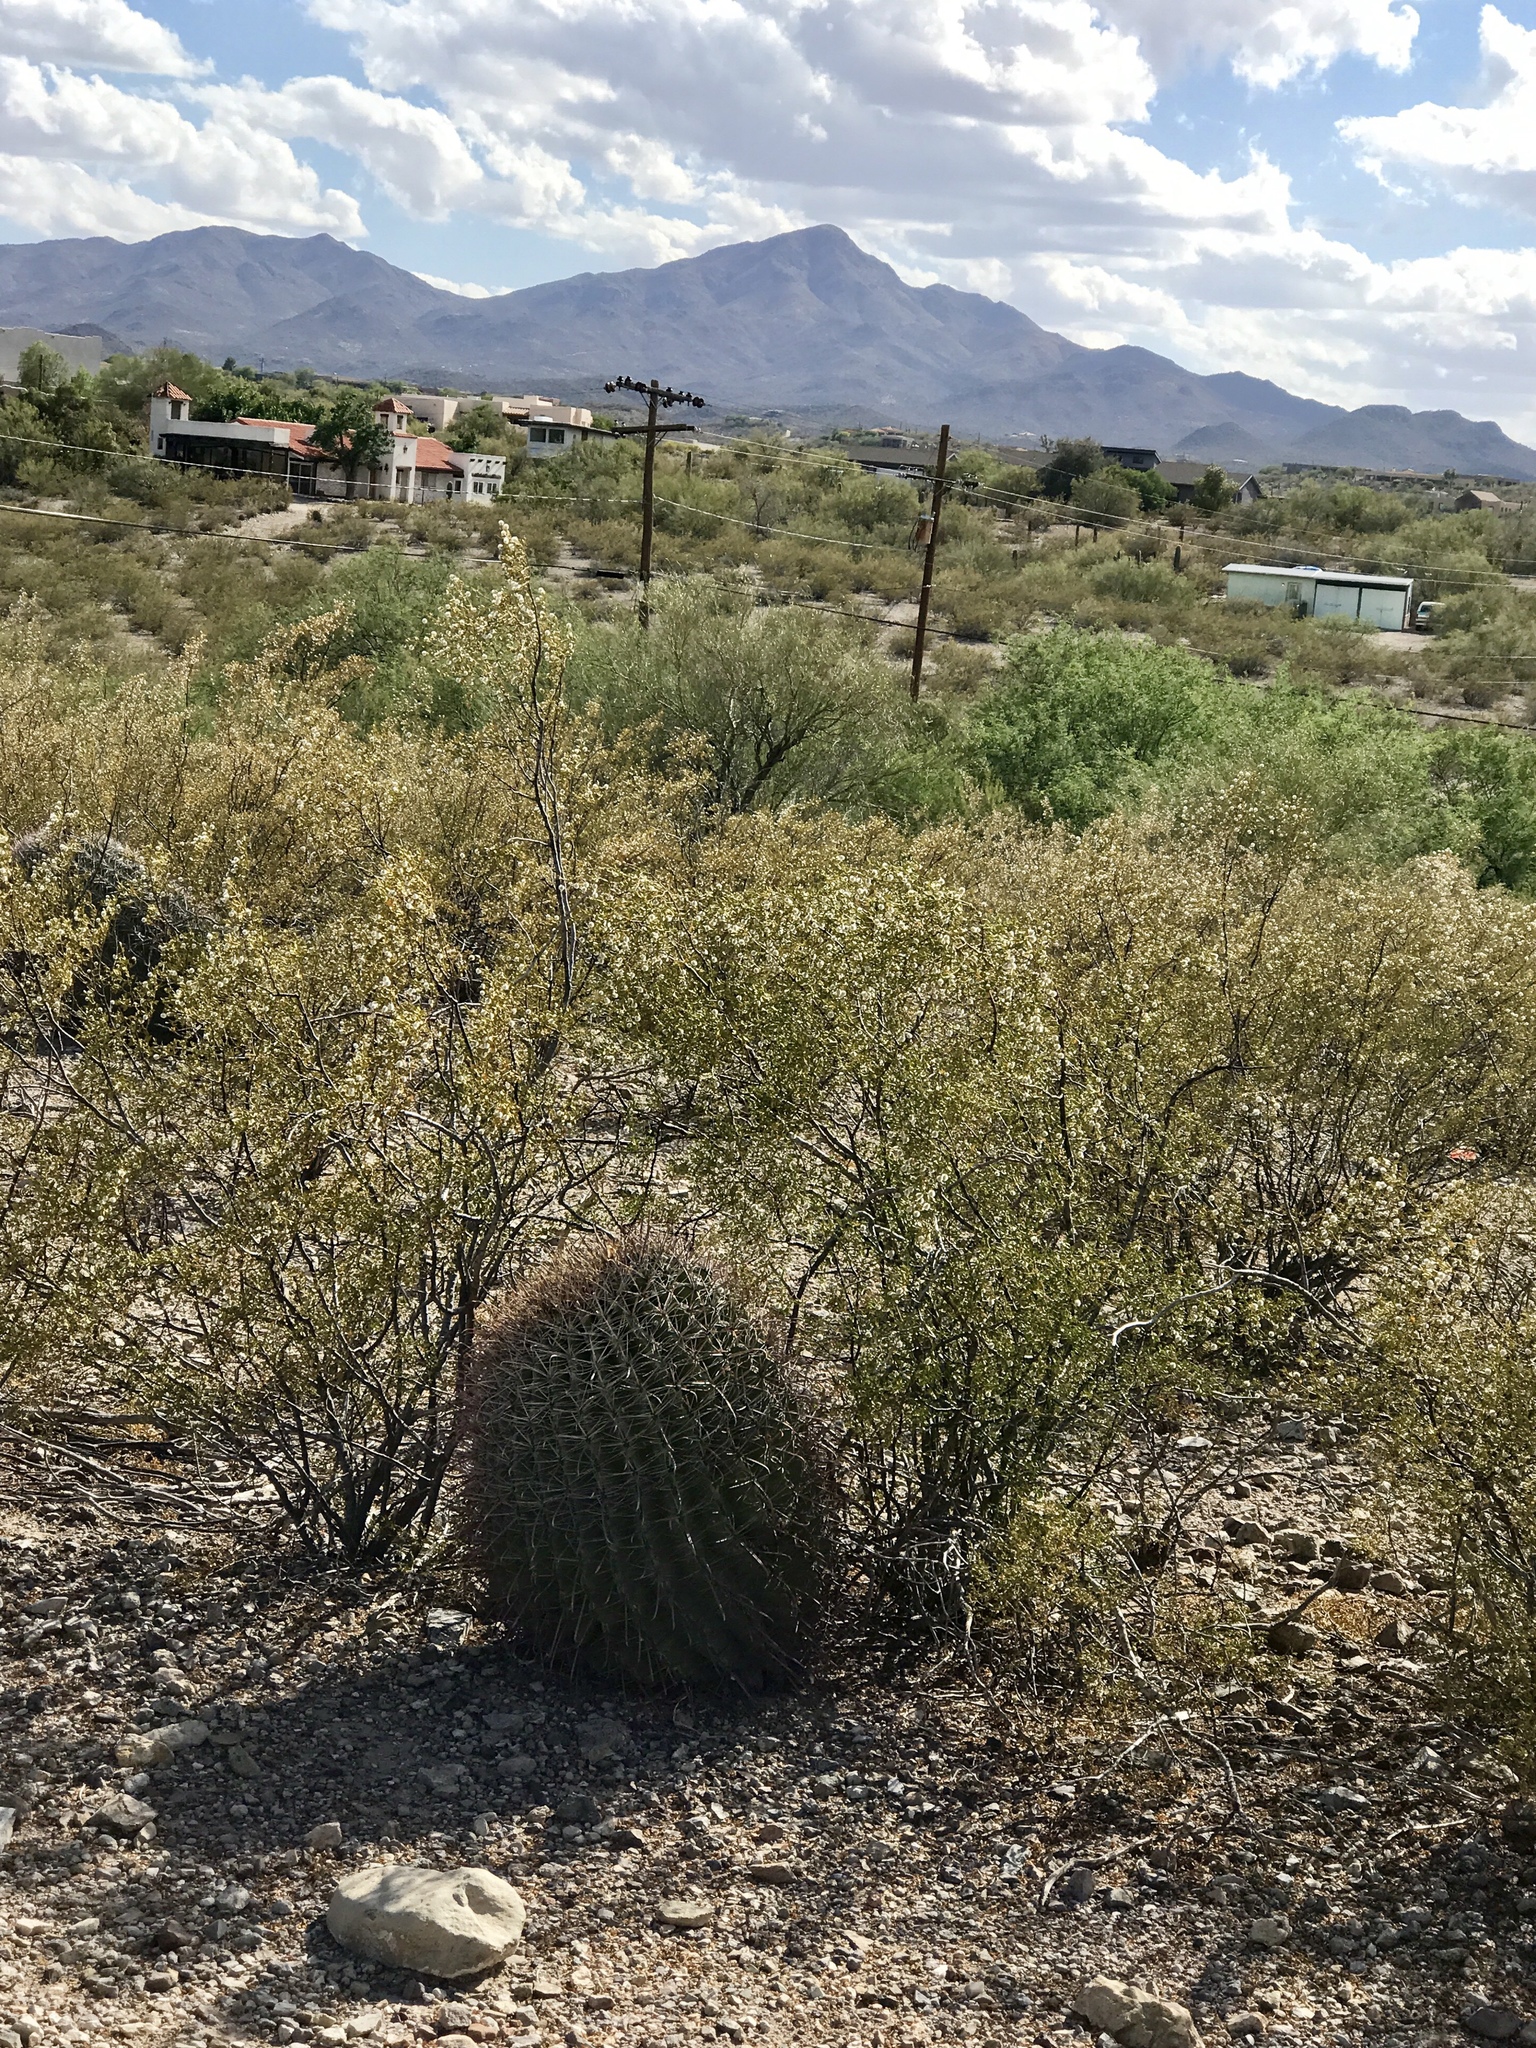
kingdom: Plantae
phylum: Tracheophyta
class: Magnoliopsida
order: Caryophyllales
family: Cactaceae
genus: Ferocactus
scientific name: Ferocactus wislizeni
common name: Candy barrel cactus
